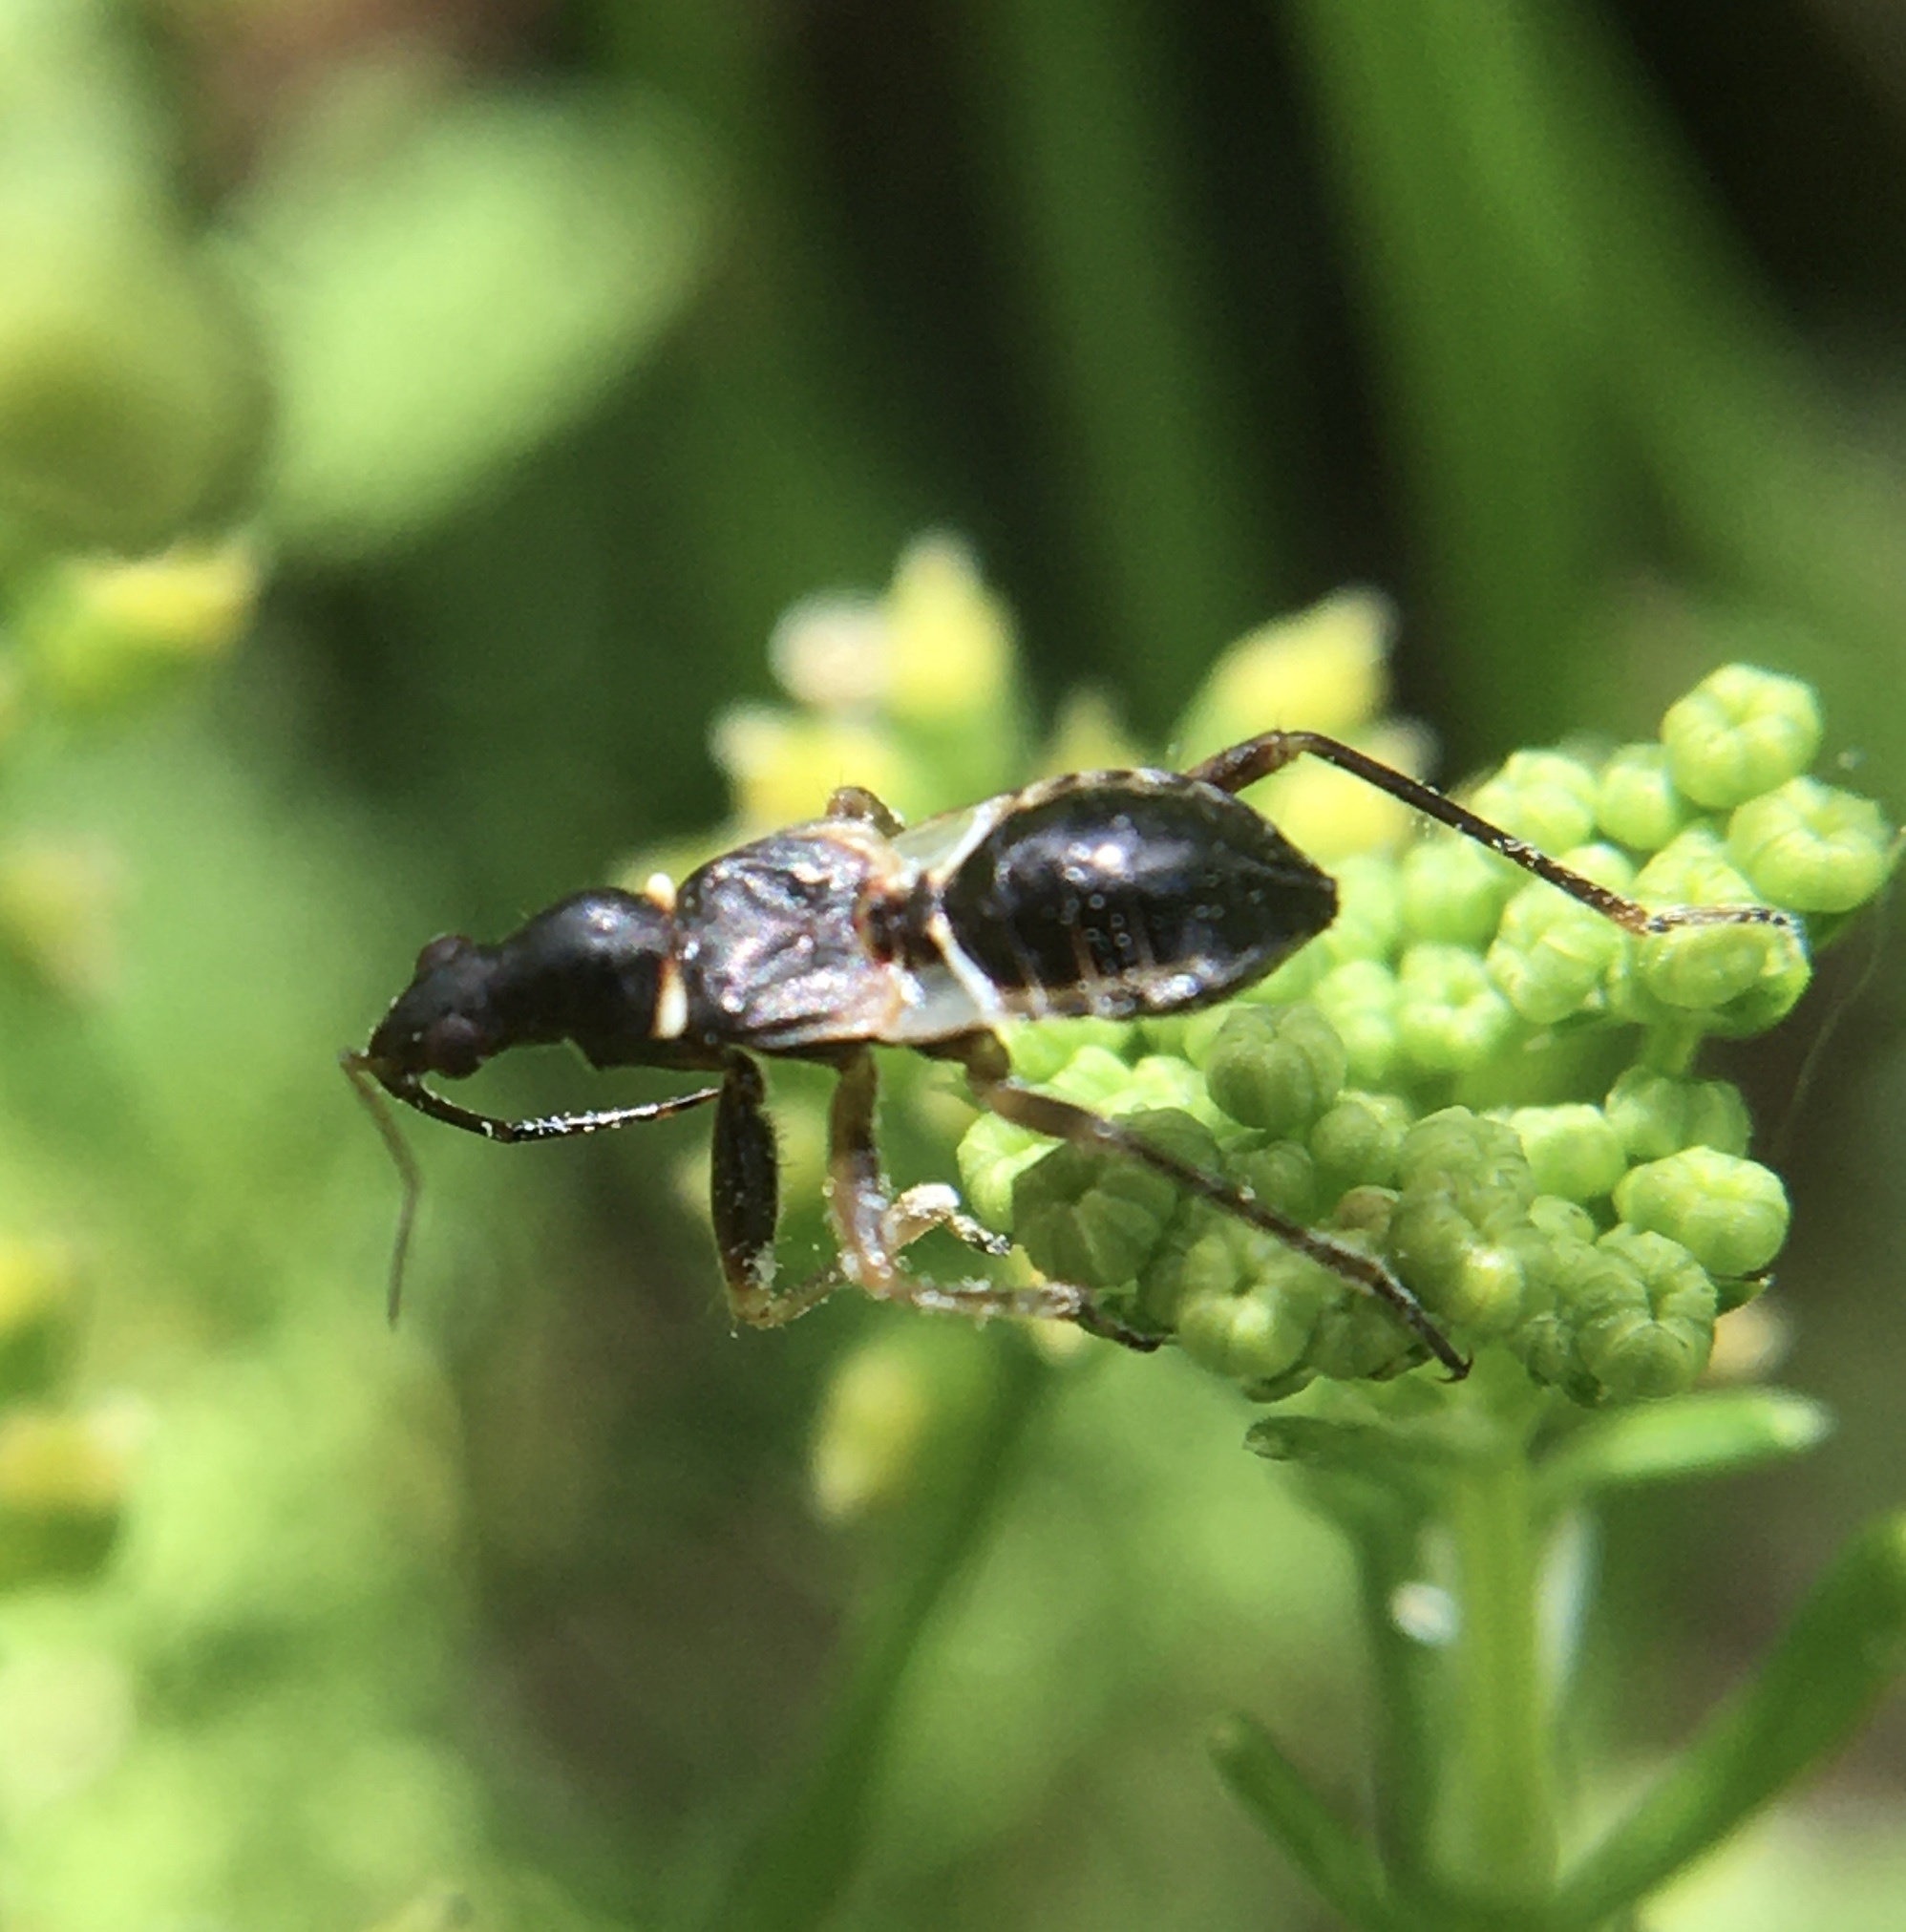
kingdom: Animalia
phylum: Arthropoda
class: Insecta
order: Hemiptera
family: Nabidae
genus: Himacerus
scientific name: Himacerus mirmicoides
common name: Ant damsel bug
